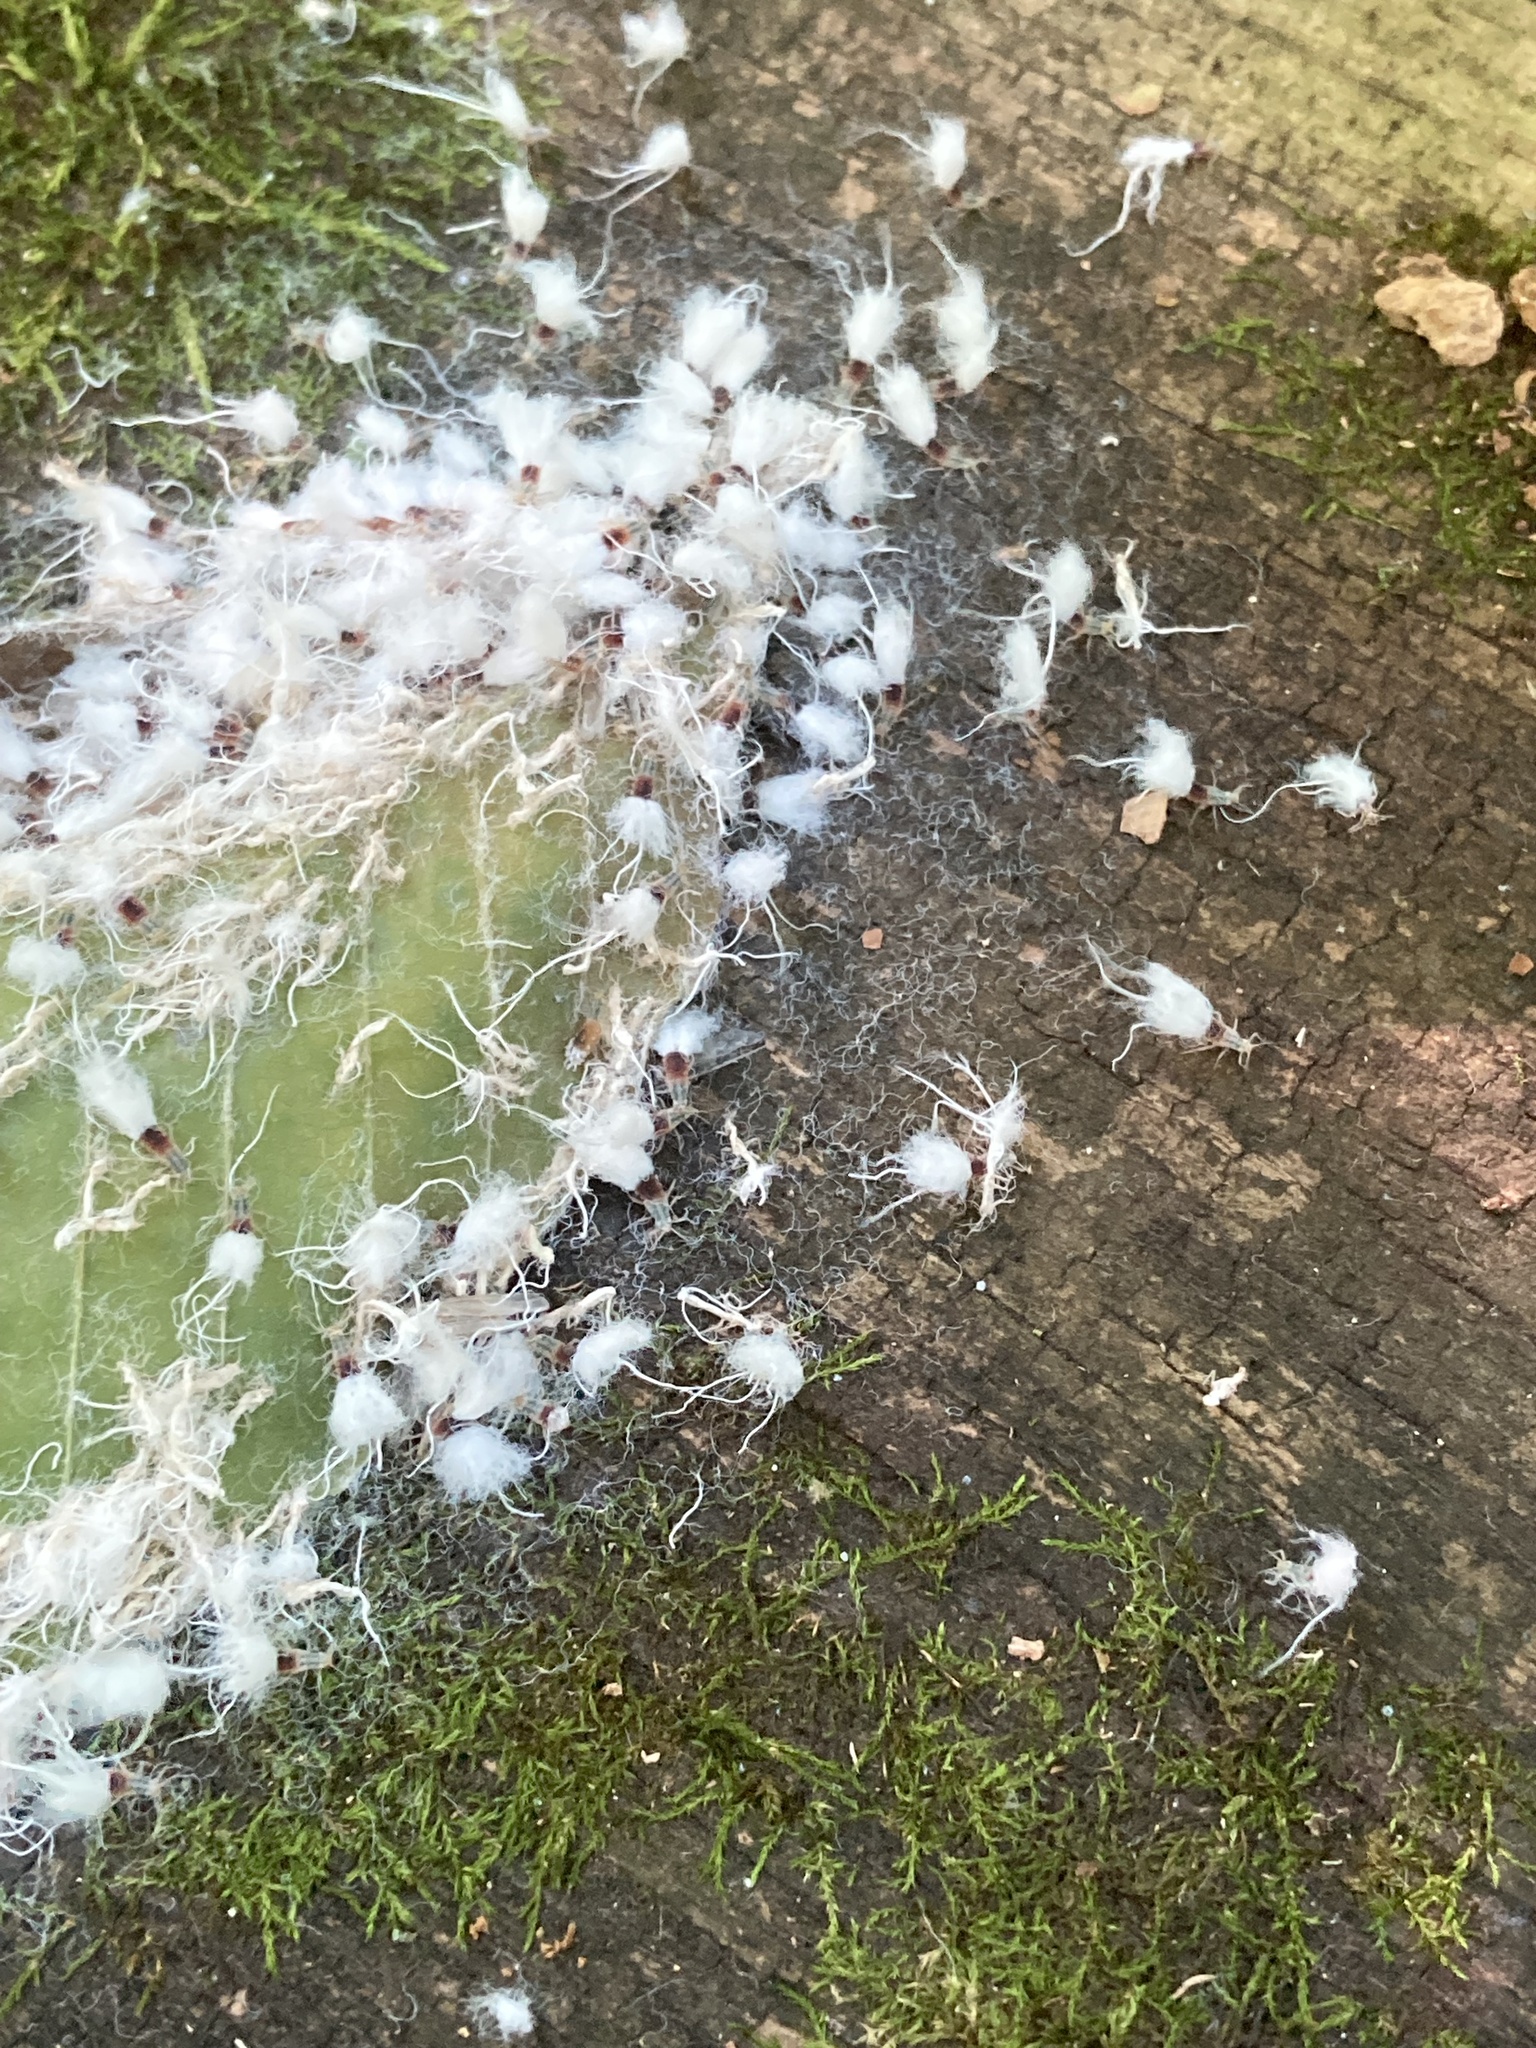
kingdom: Animalia
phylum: Arthropoda
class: Insecta
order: Hemiptera
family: Aphididae
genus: Grylloprociphilus
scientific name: Grylloprociphilus imbricator
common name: Beech blight aphid
